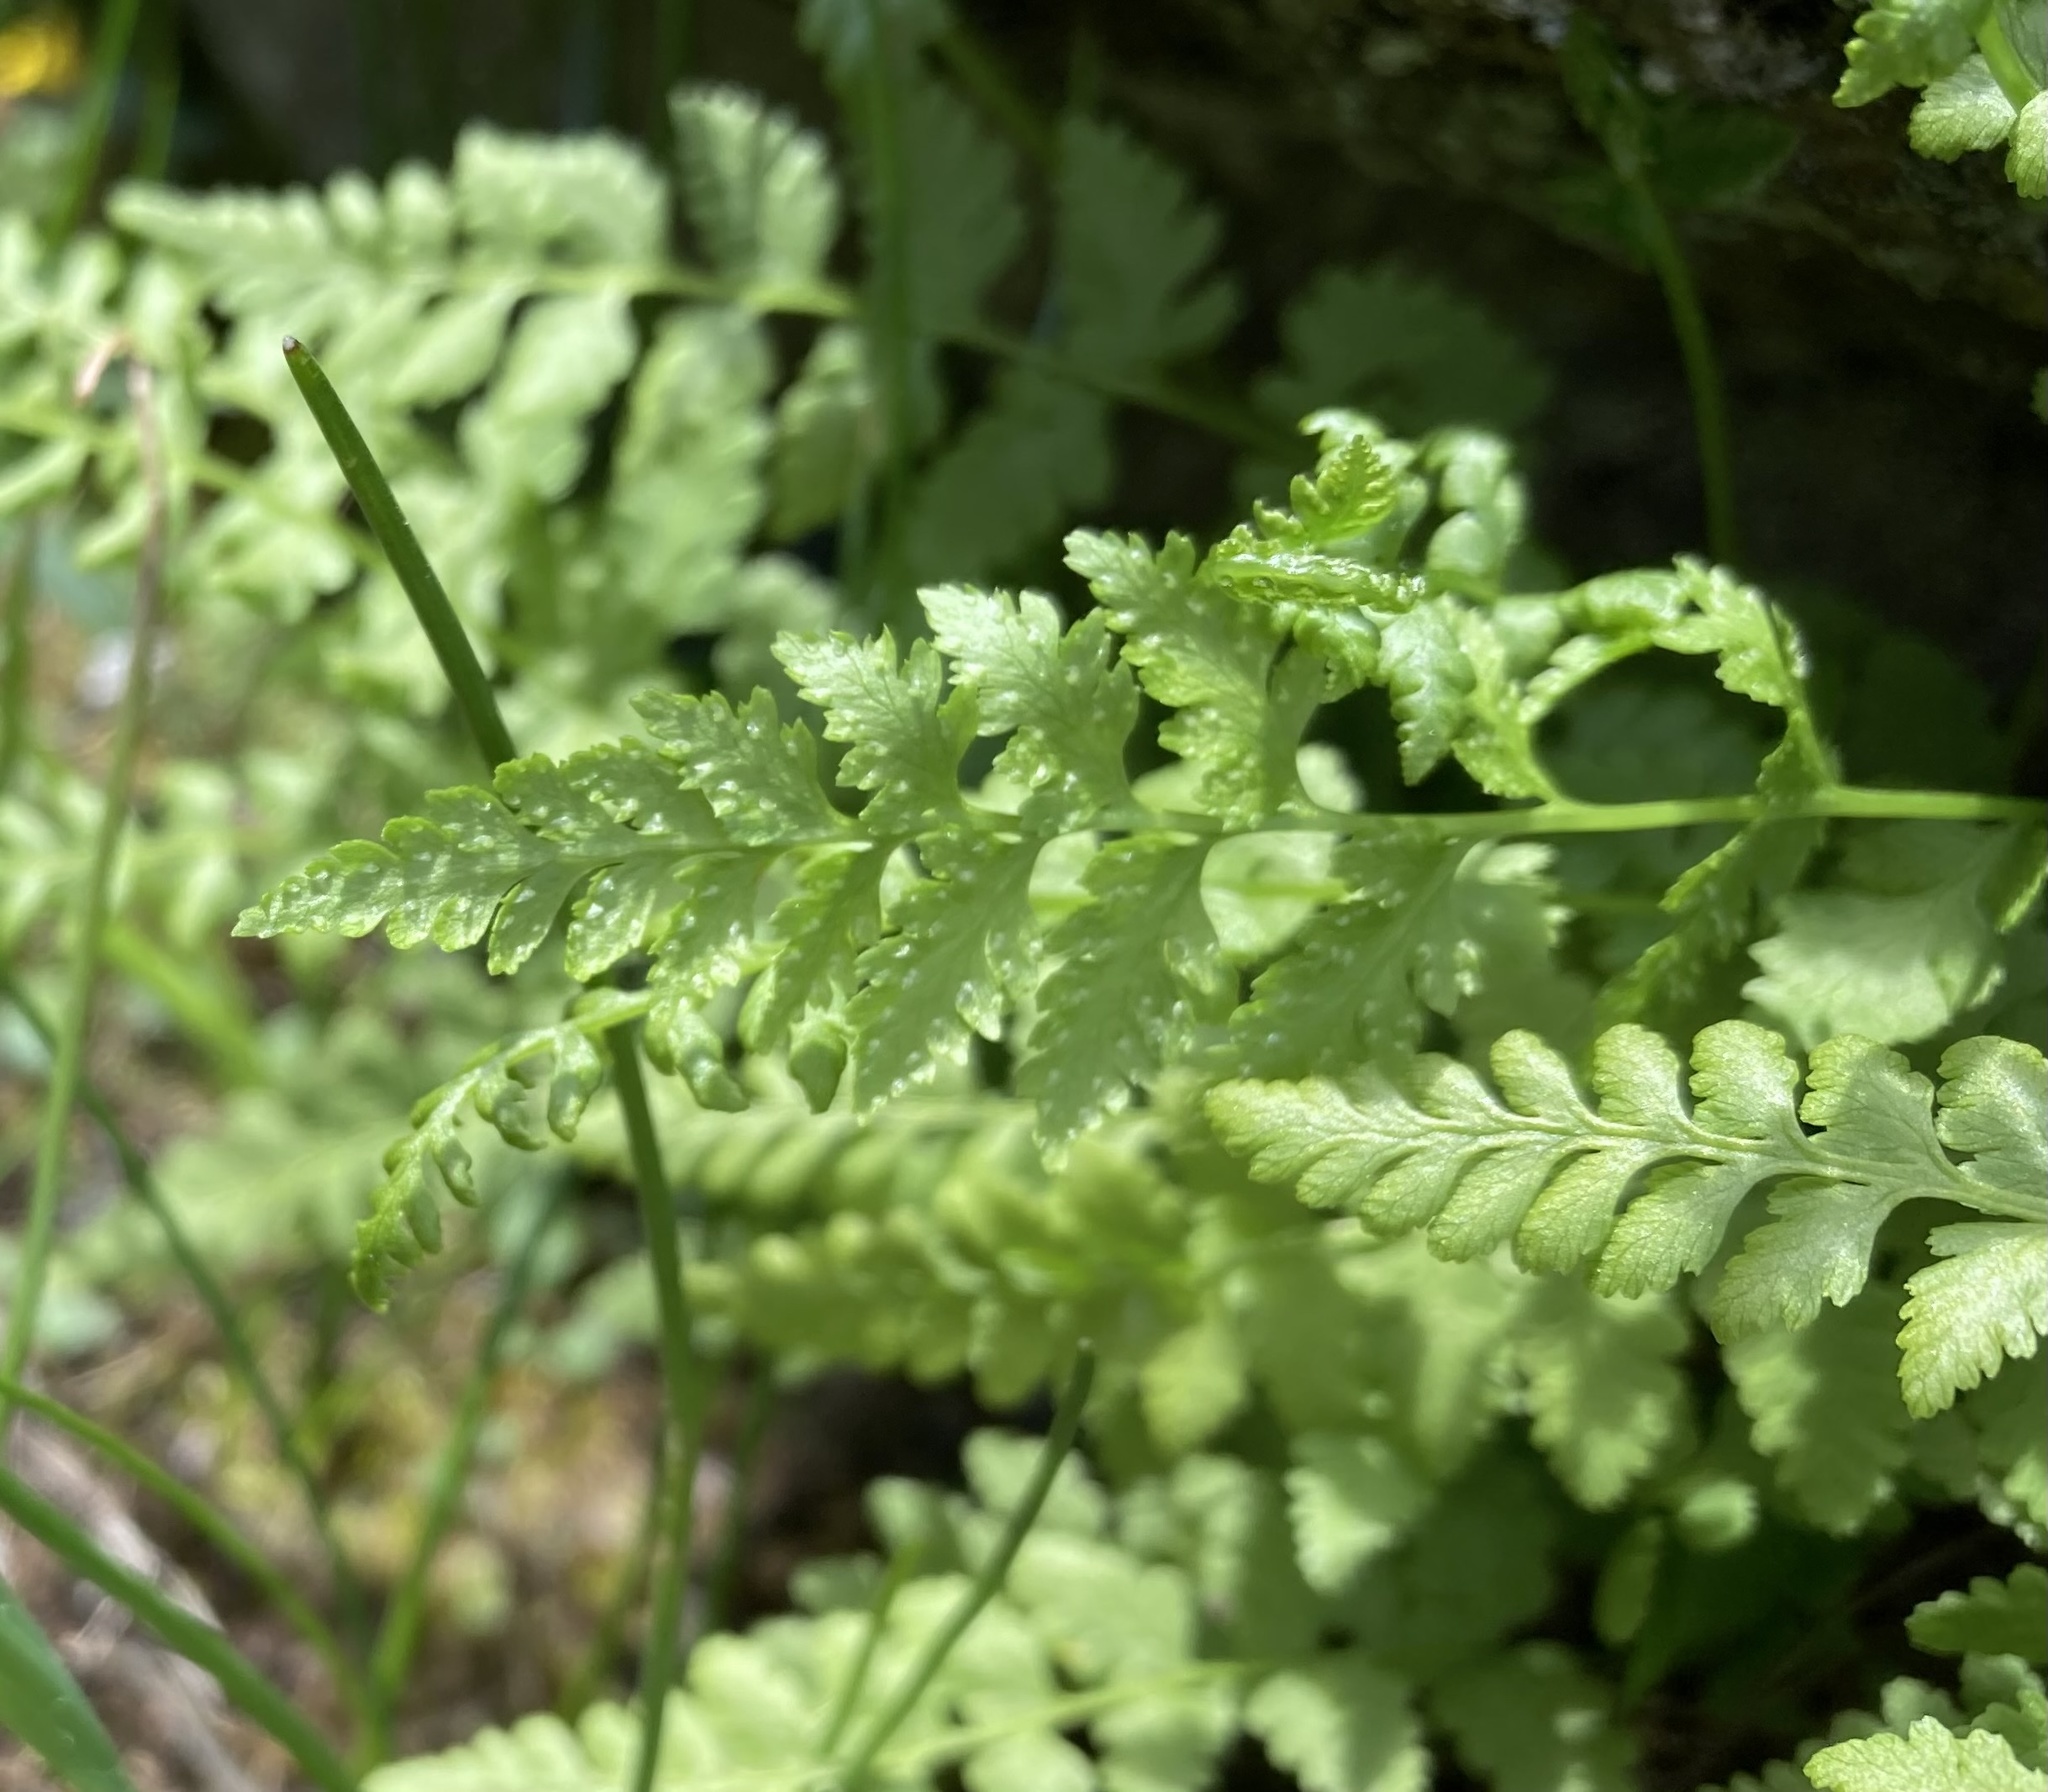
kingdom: Plantae
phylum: Tracheophyta
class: Polypodiopsida
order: Polypodiales
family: Cystopteridaceae
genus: Cystopteris
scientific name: Cystopteris fragilis
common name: Brittle bladder fern
